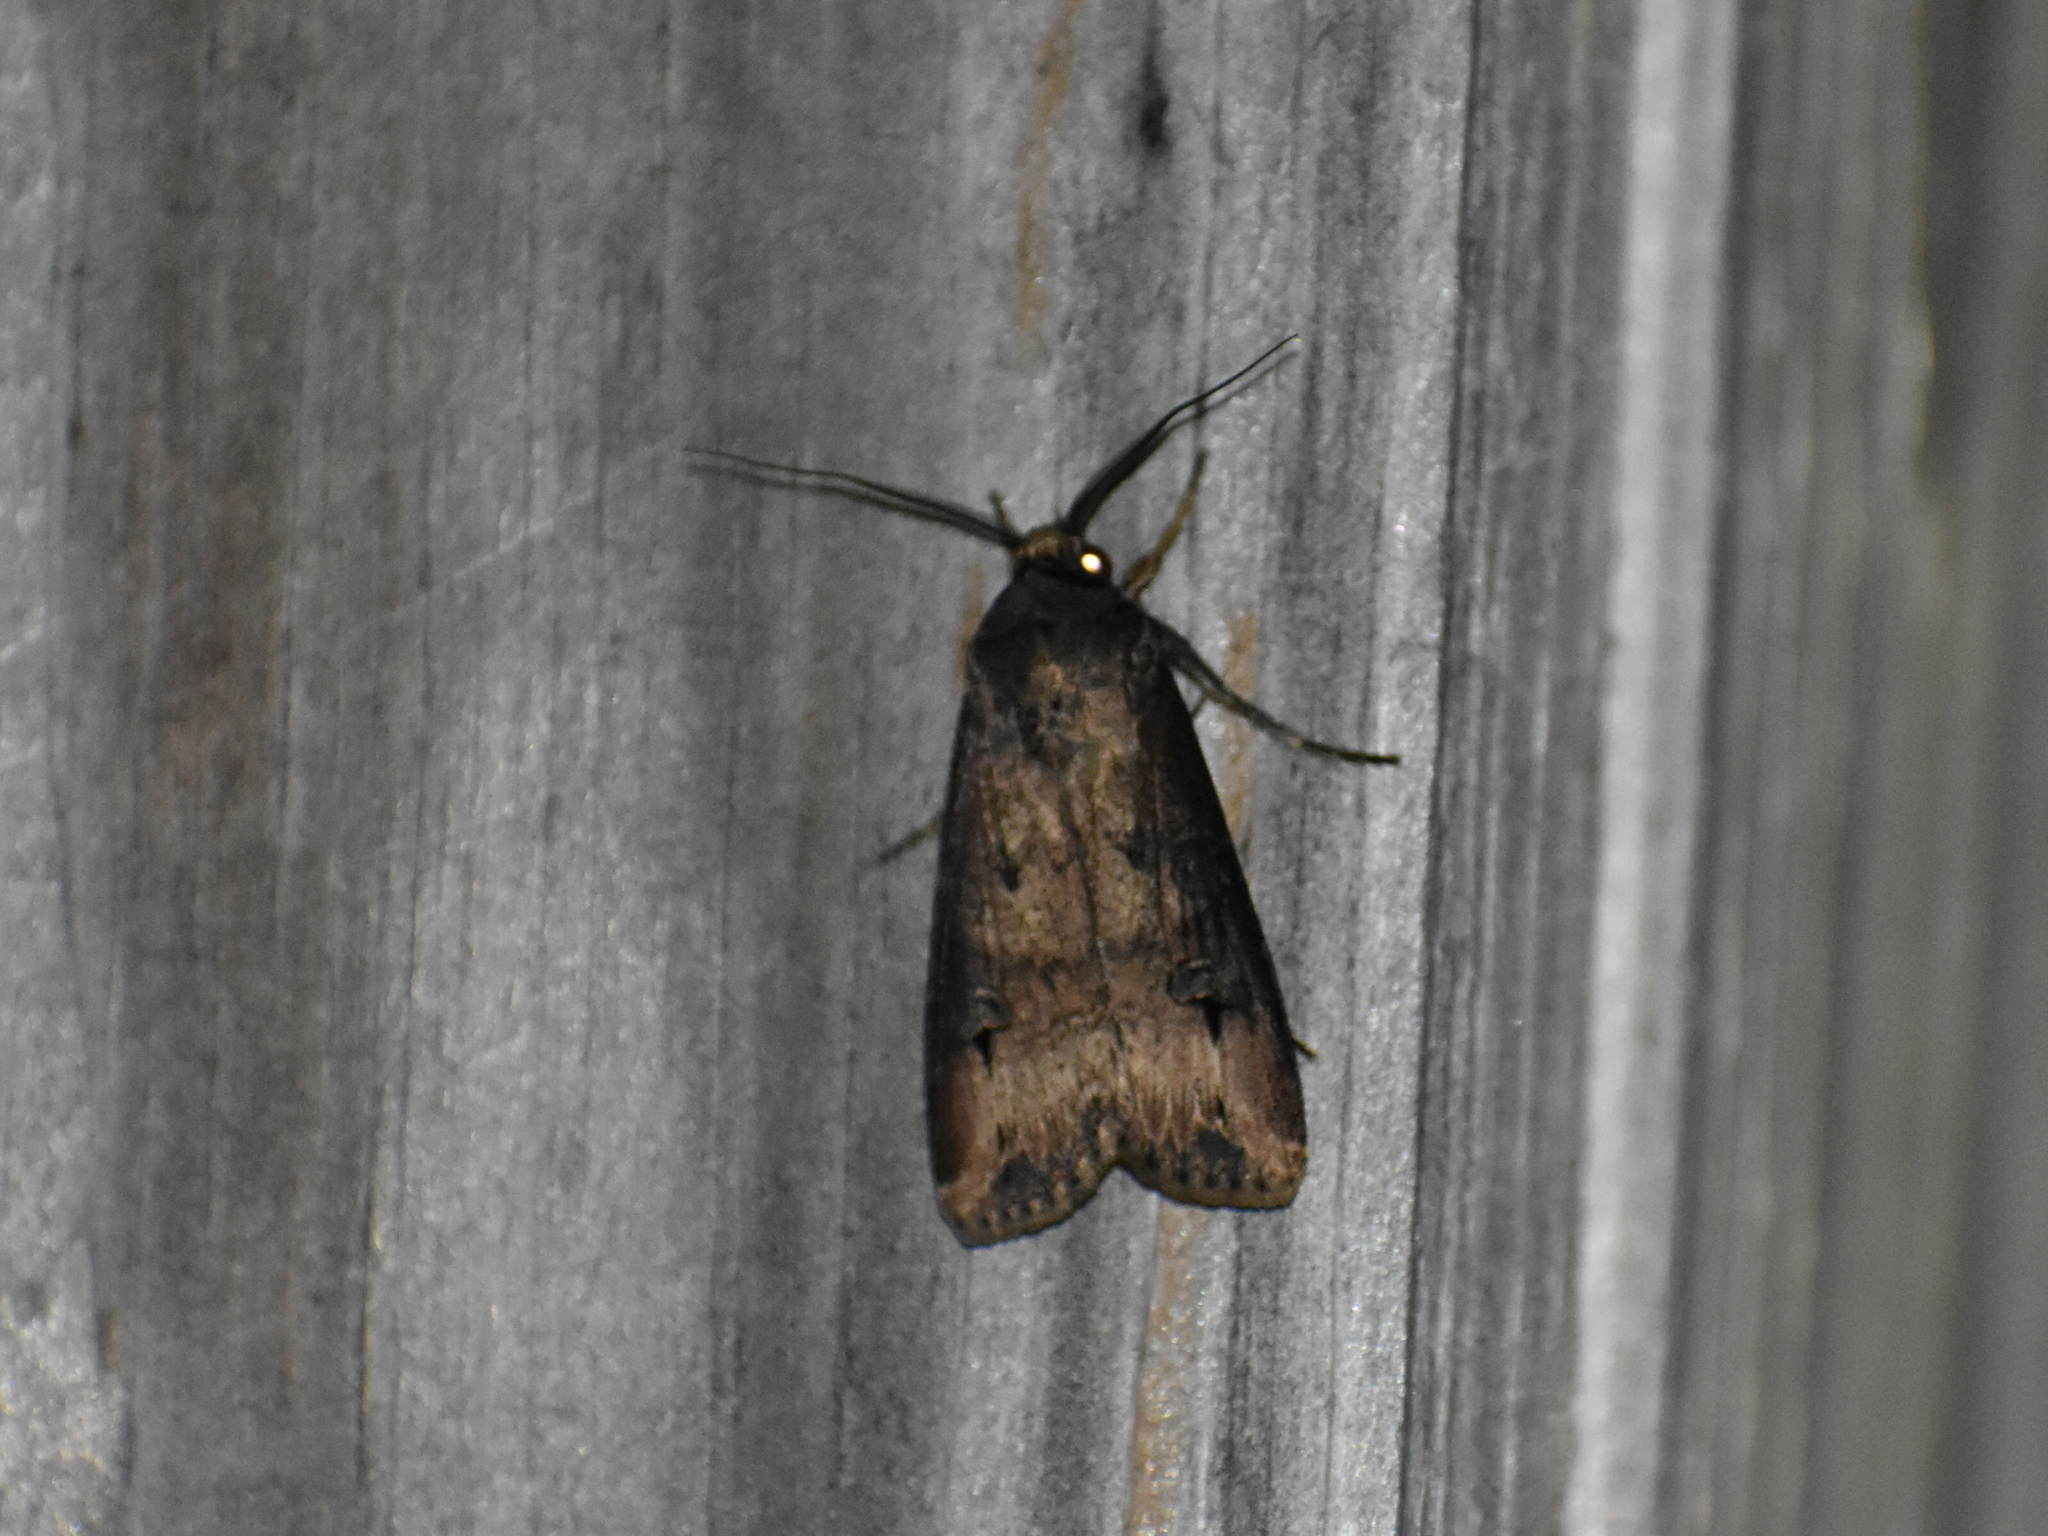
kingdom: Animalia
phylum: Arthropoda
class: Insecta
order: Lepidoptera
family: Noctuidae
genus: Agrotis
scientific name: Agrotis ipsilon
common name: Dark sword-grass
